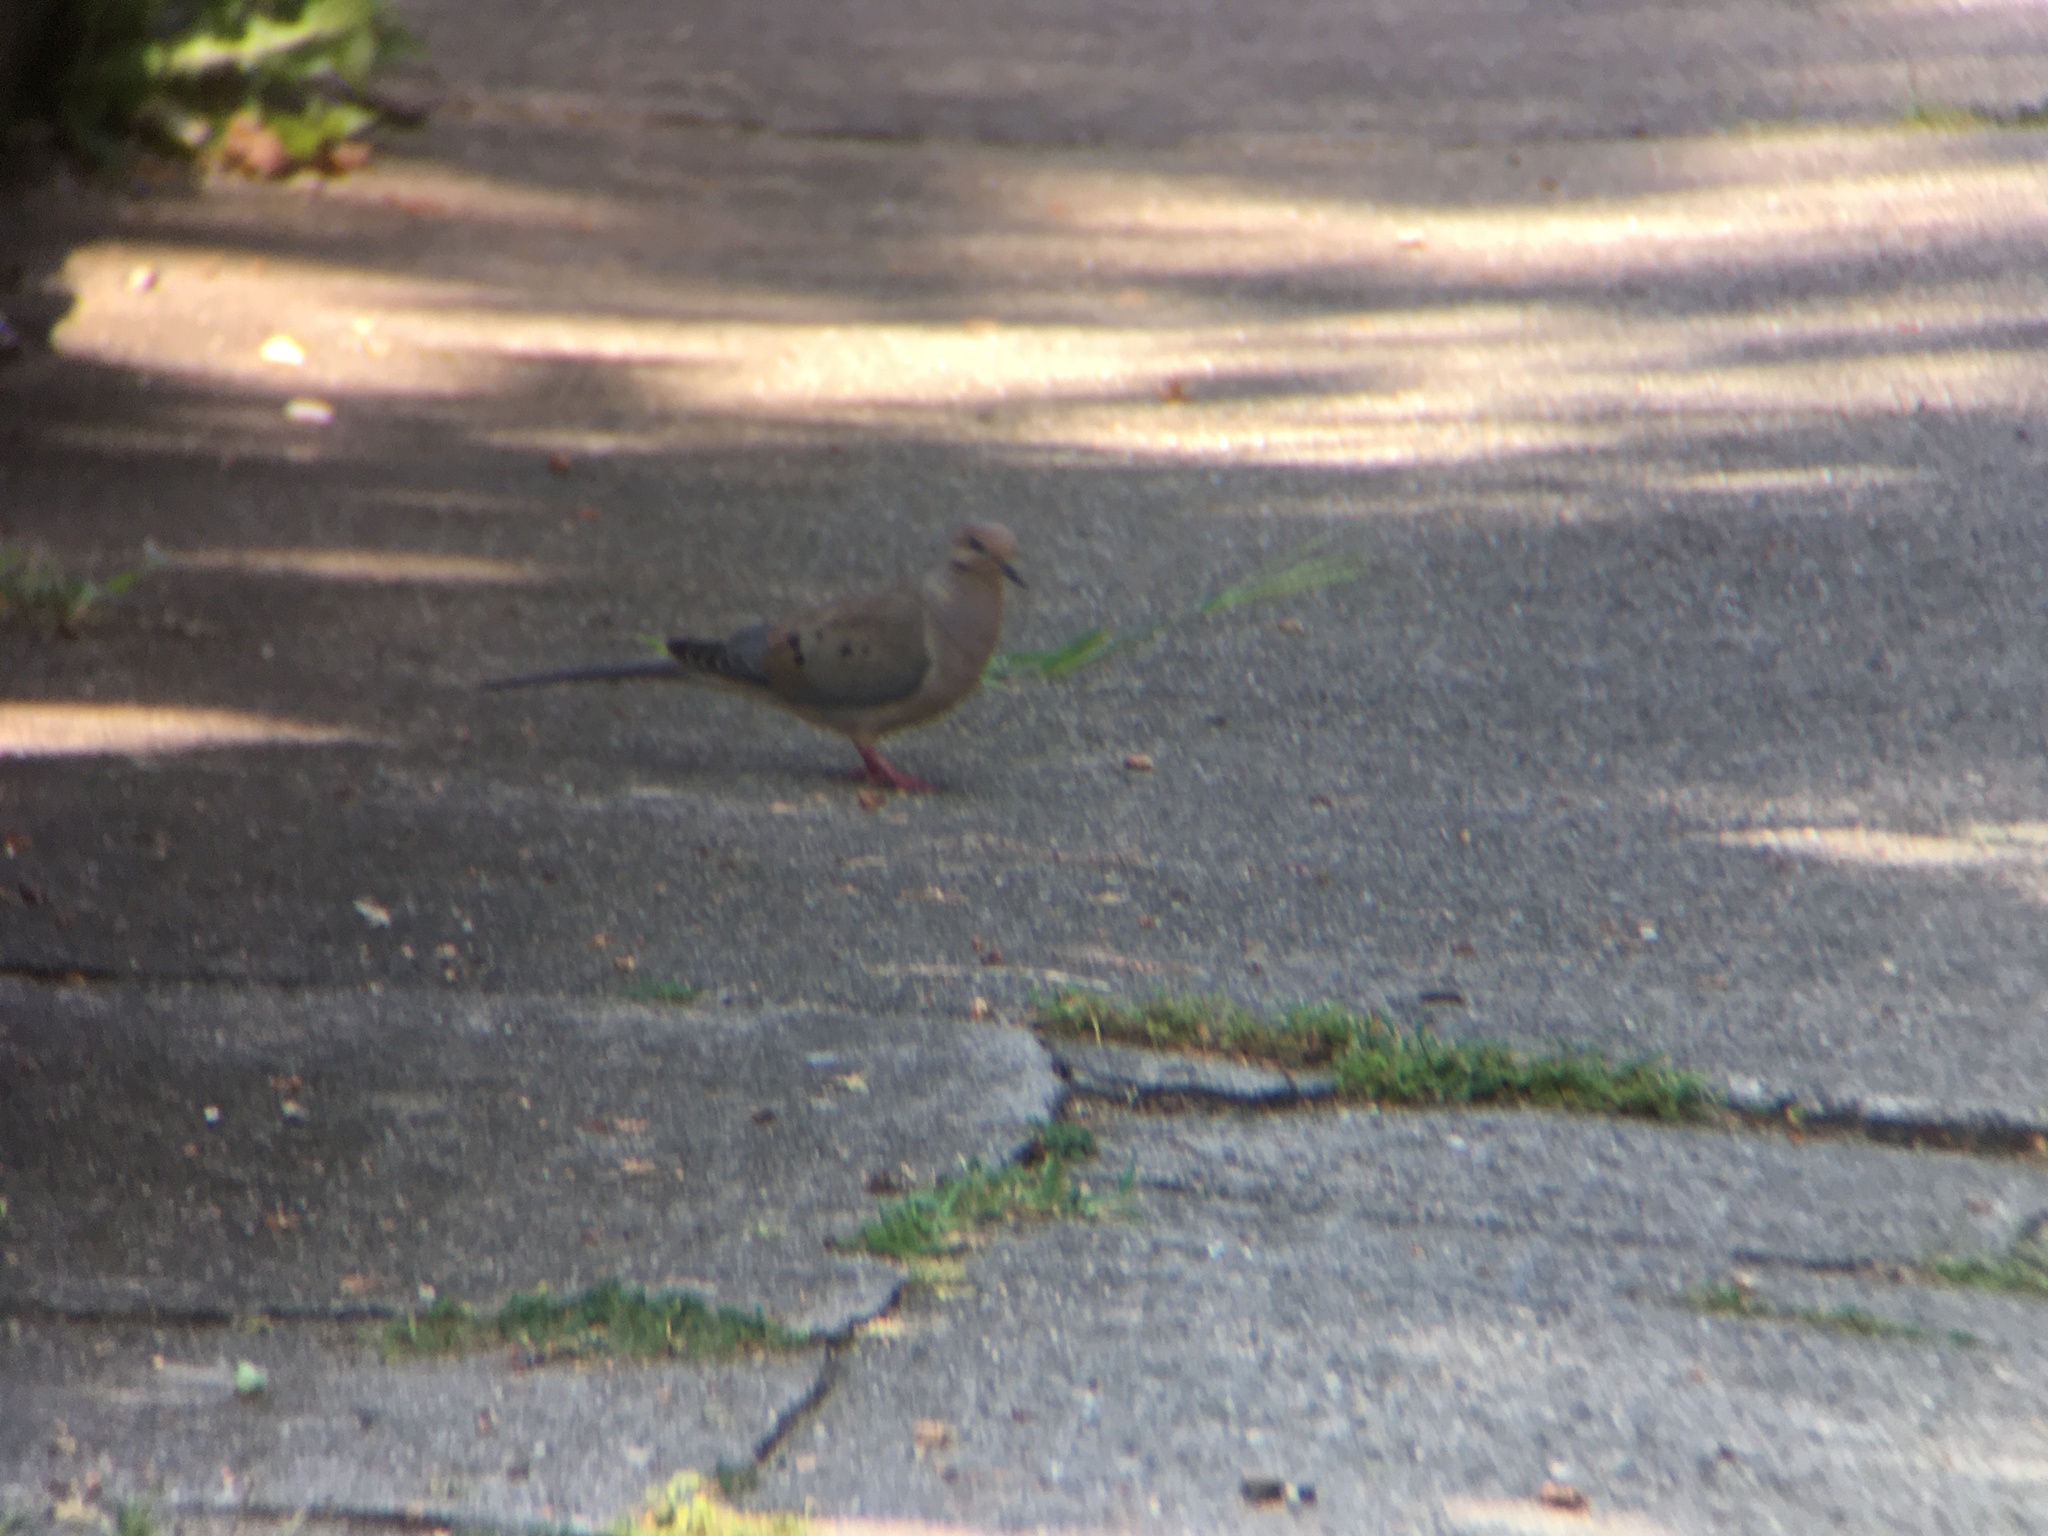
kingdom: Animalia
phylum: Chordata
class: Aves
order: Columbiformes
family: Columbidae
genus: Zenaida
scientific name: Zenaida macroura
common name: Mourning dove
